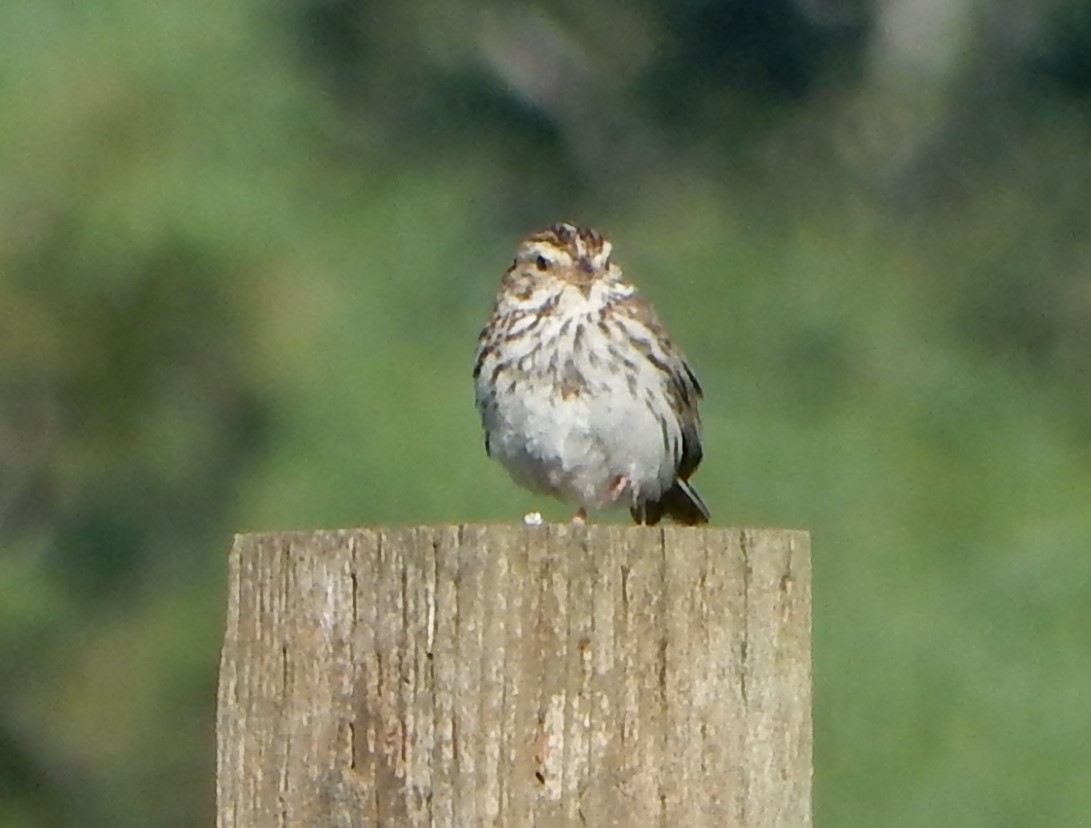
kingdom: Animalia
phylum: Chordata
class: Aves
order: Passeriformes
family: Passerellidae
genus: Passerculus
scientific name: Passerculus sandwichensis
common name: Savannah sparrow
